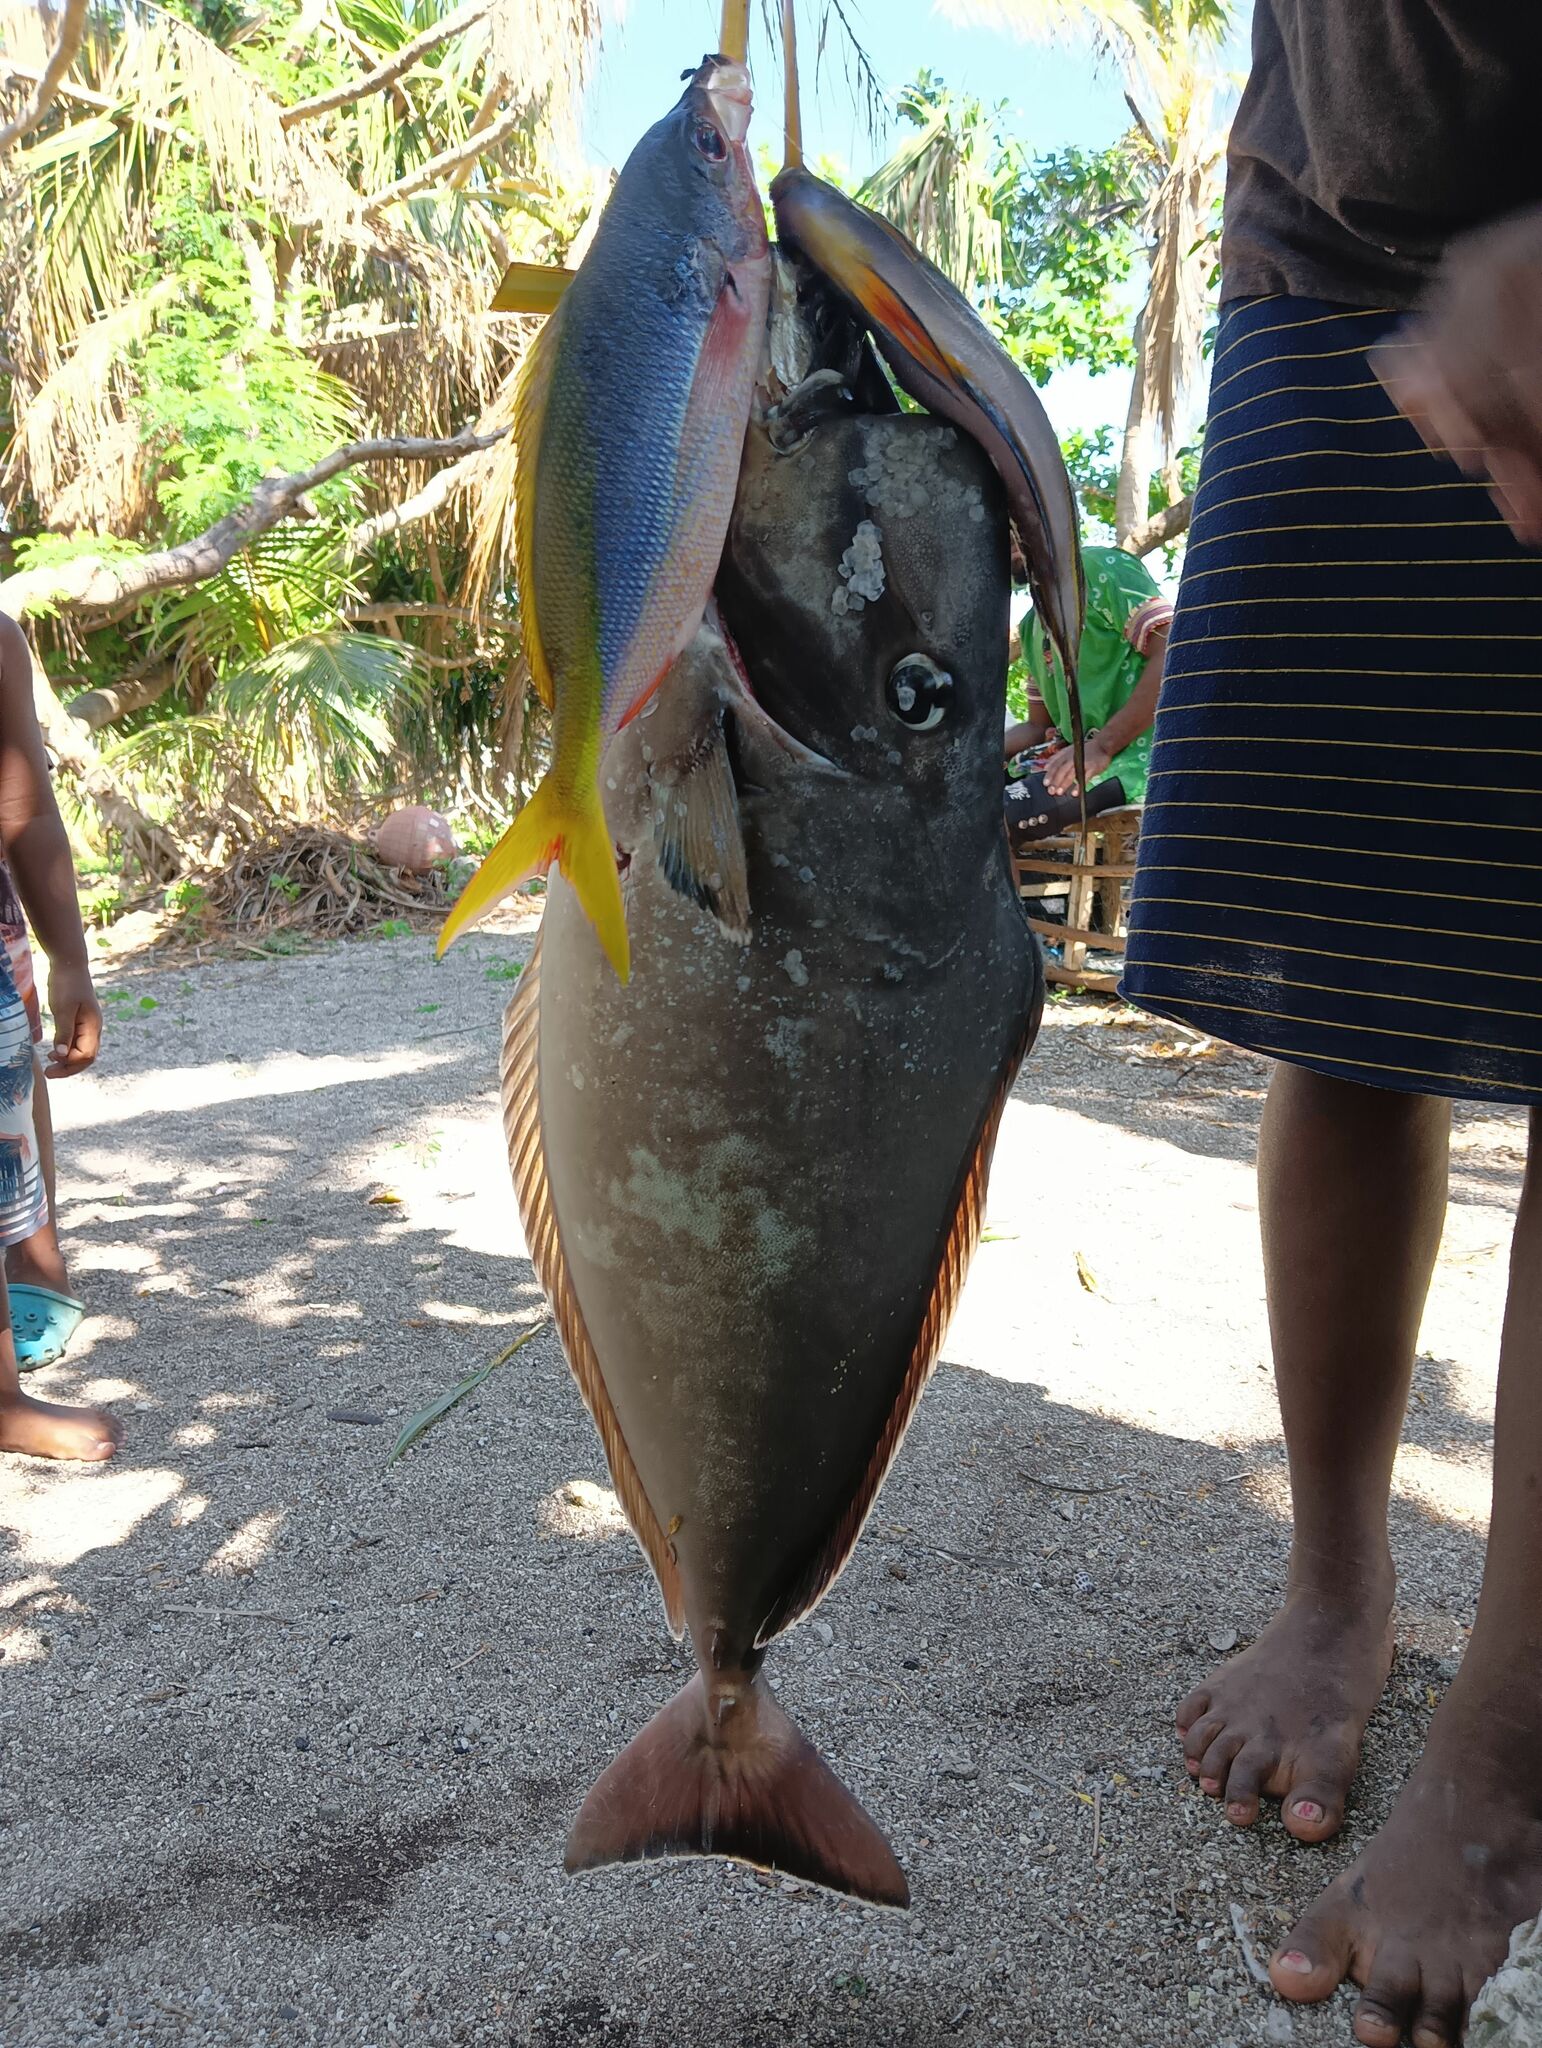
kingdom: Animalia
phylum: Chordata
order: Perciformes
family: Acanthuridae
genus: Naso
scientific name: Naso tonganus
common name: Humpnose unicornfish
